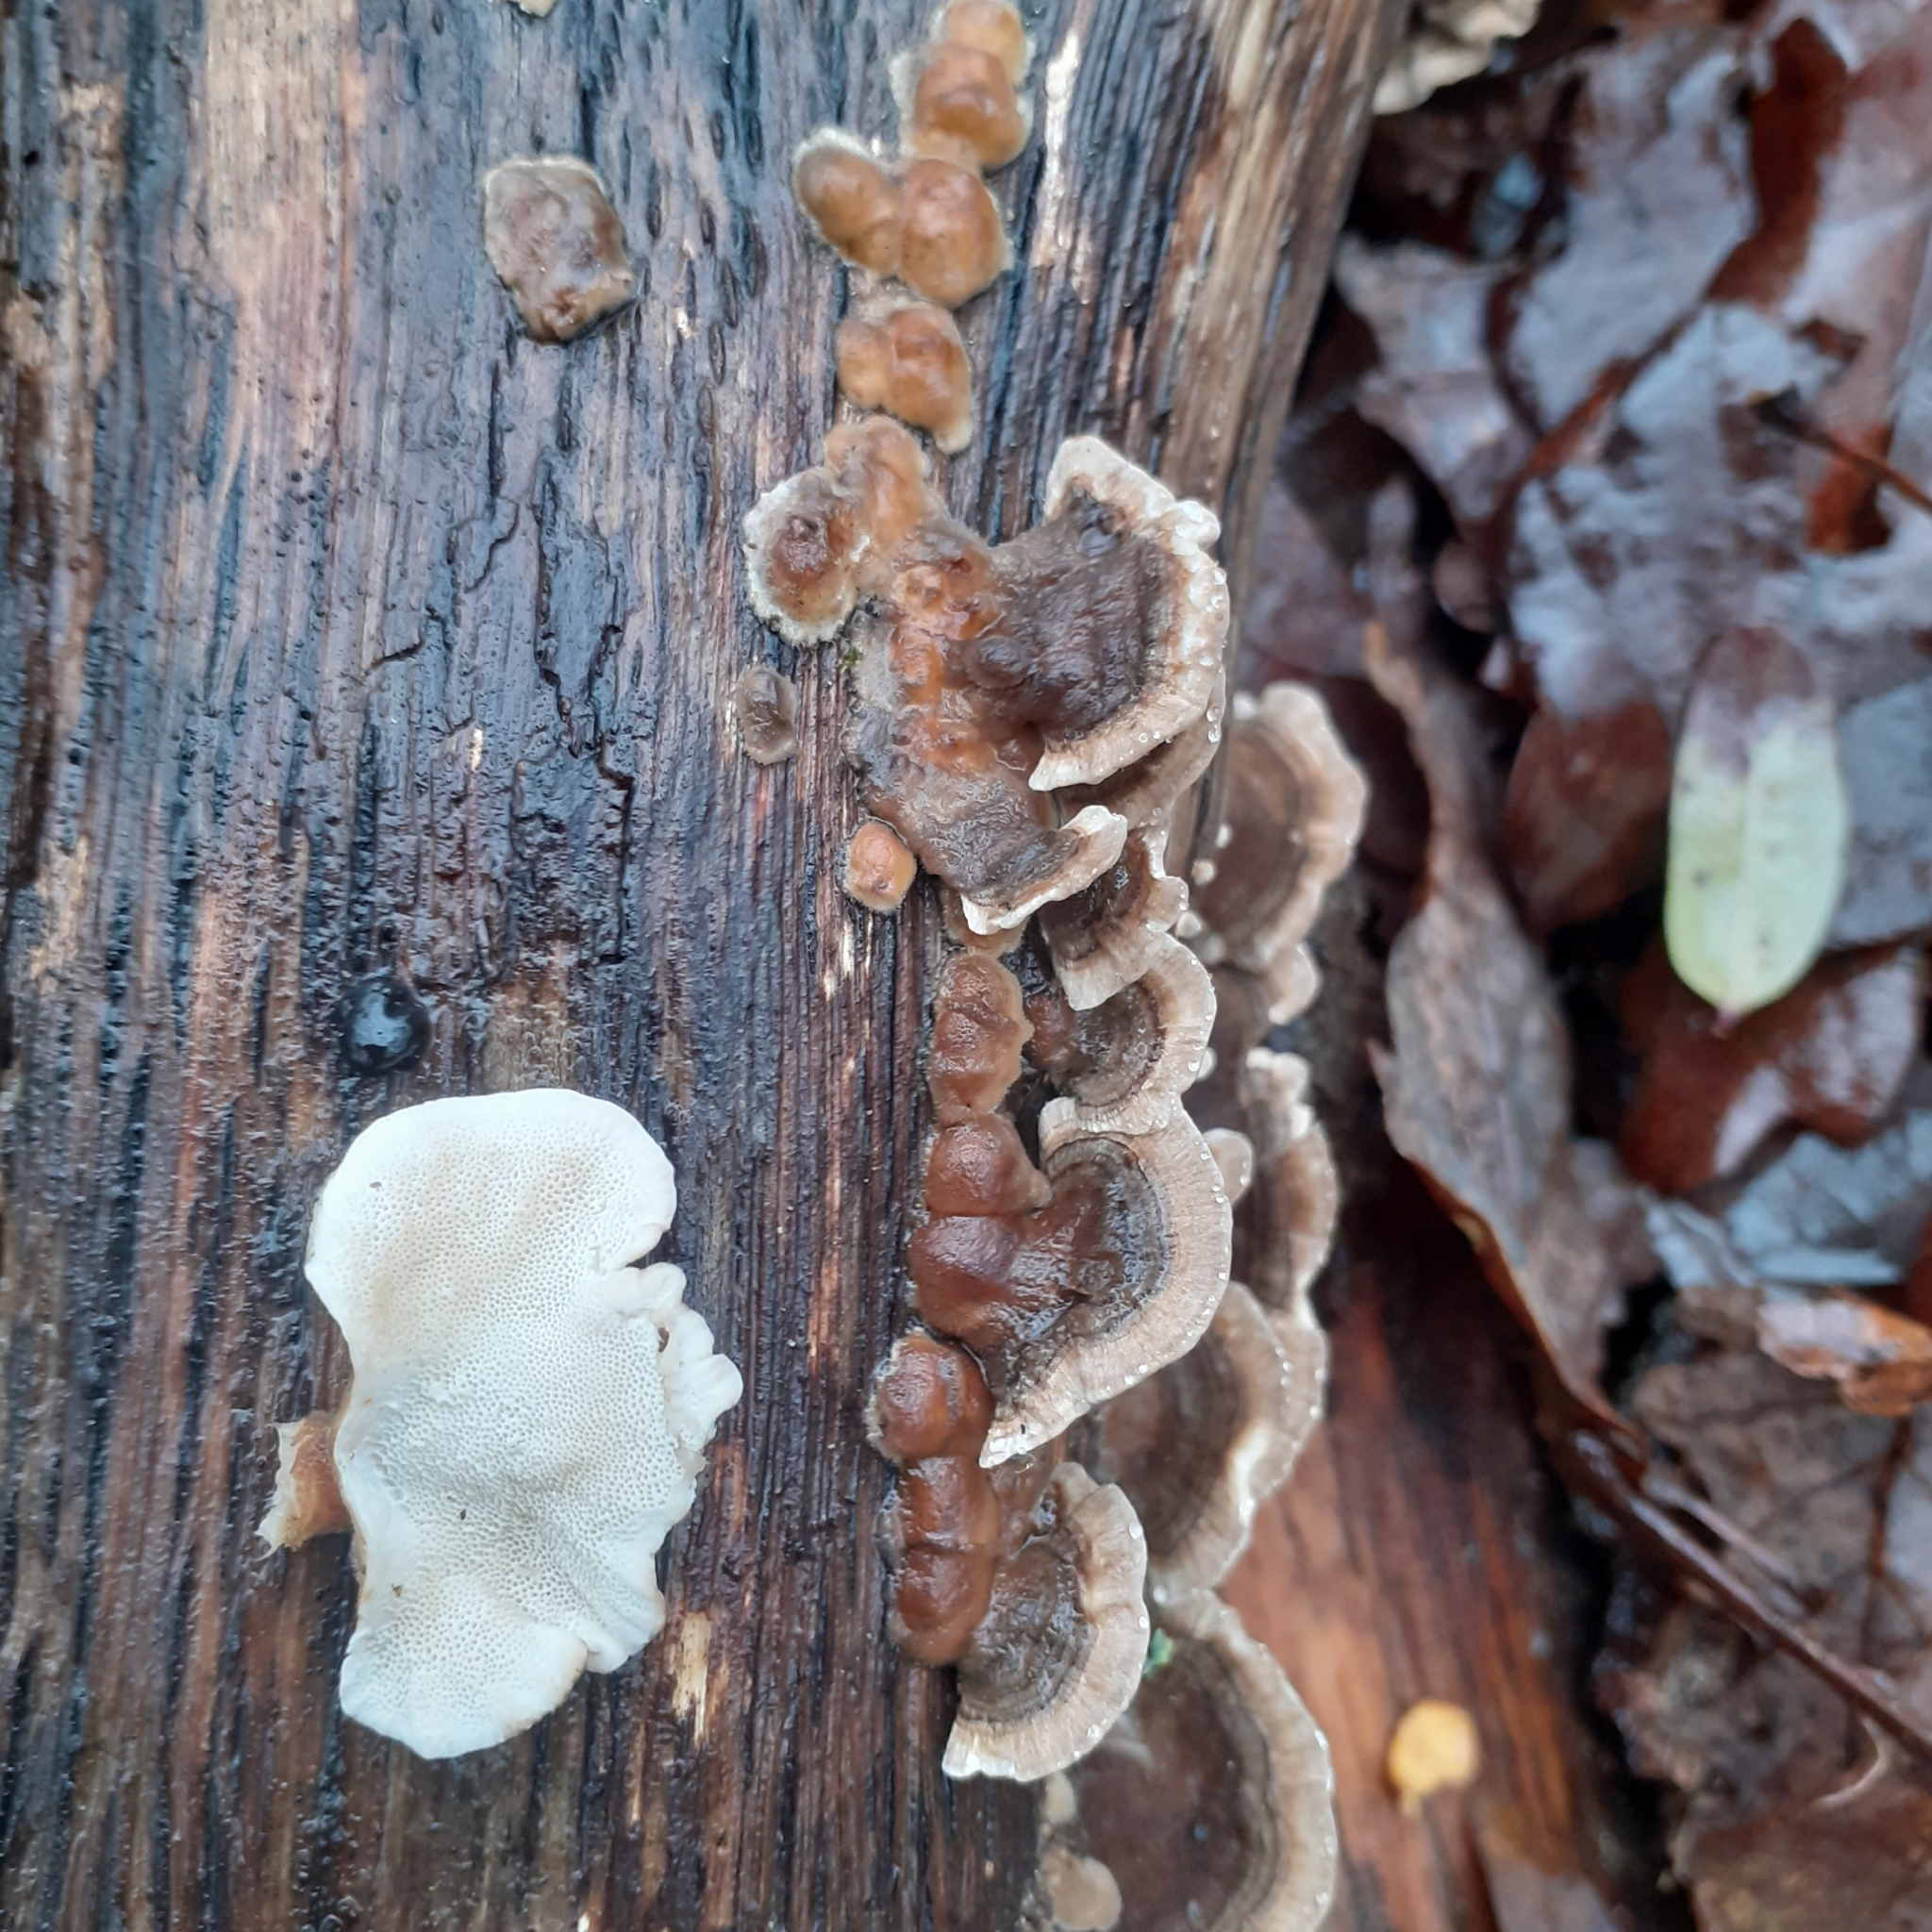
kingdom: Fungi
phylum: Basidiomycota
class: Agaricomycetes
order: Polyporales
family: Polyporaceae
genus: Trametes
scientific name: Trametes versicolor
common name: Turkeytail
